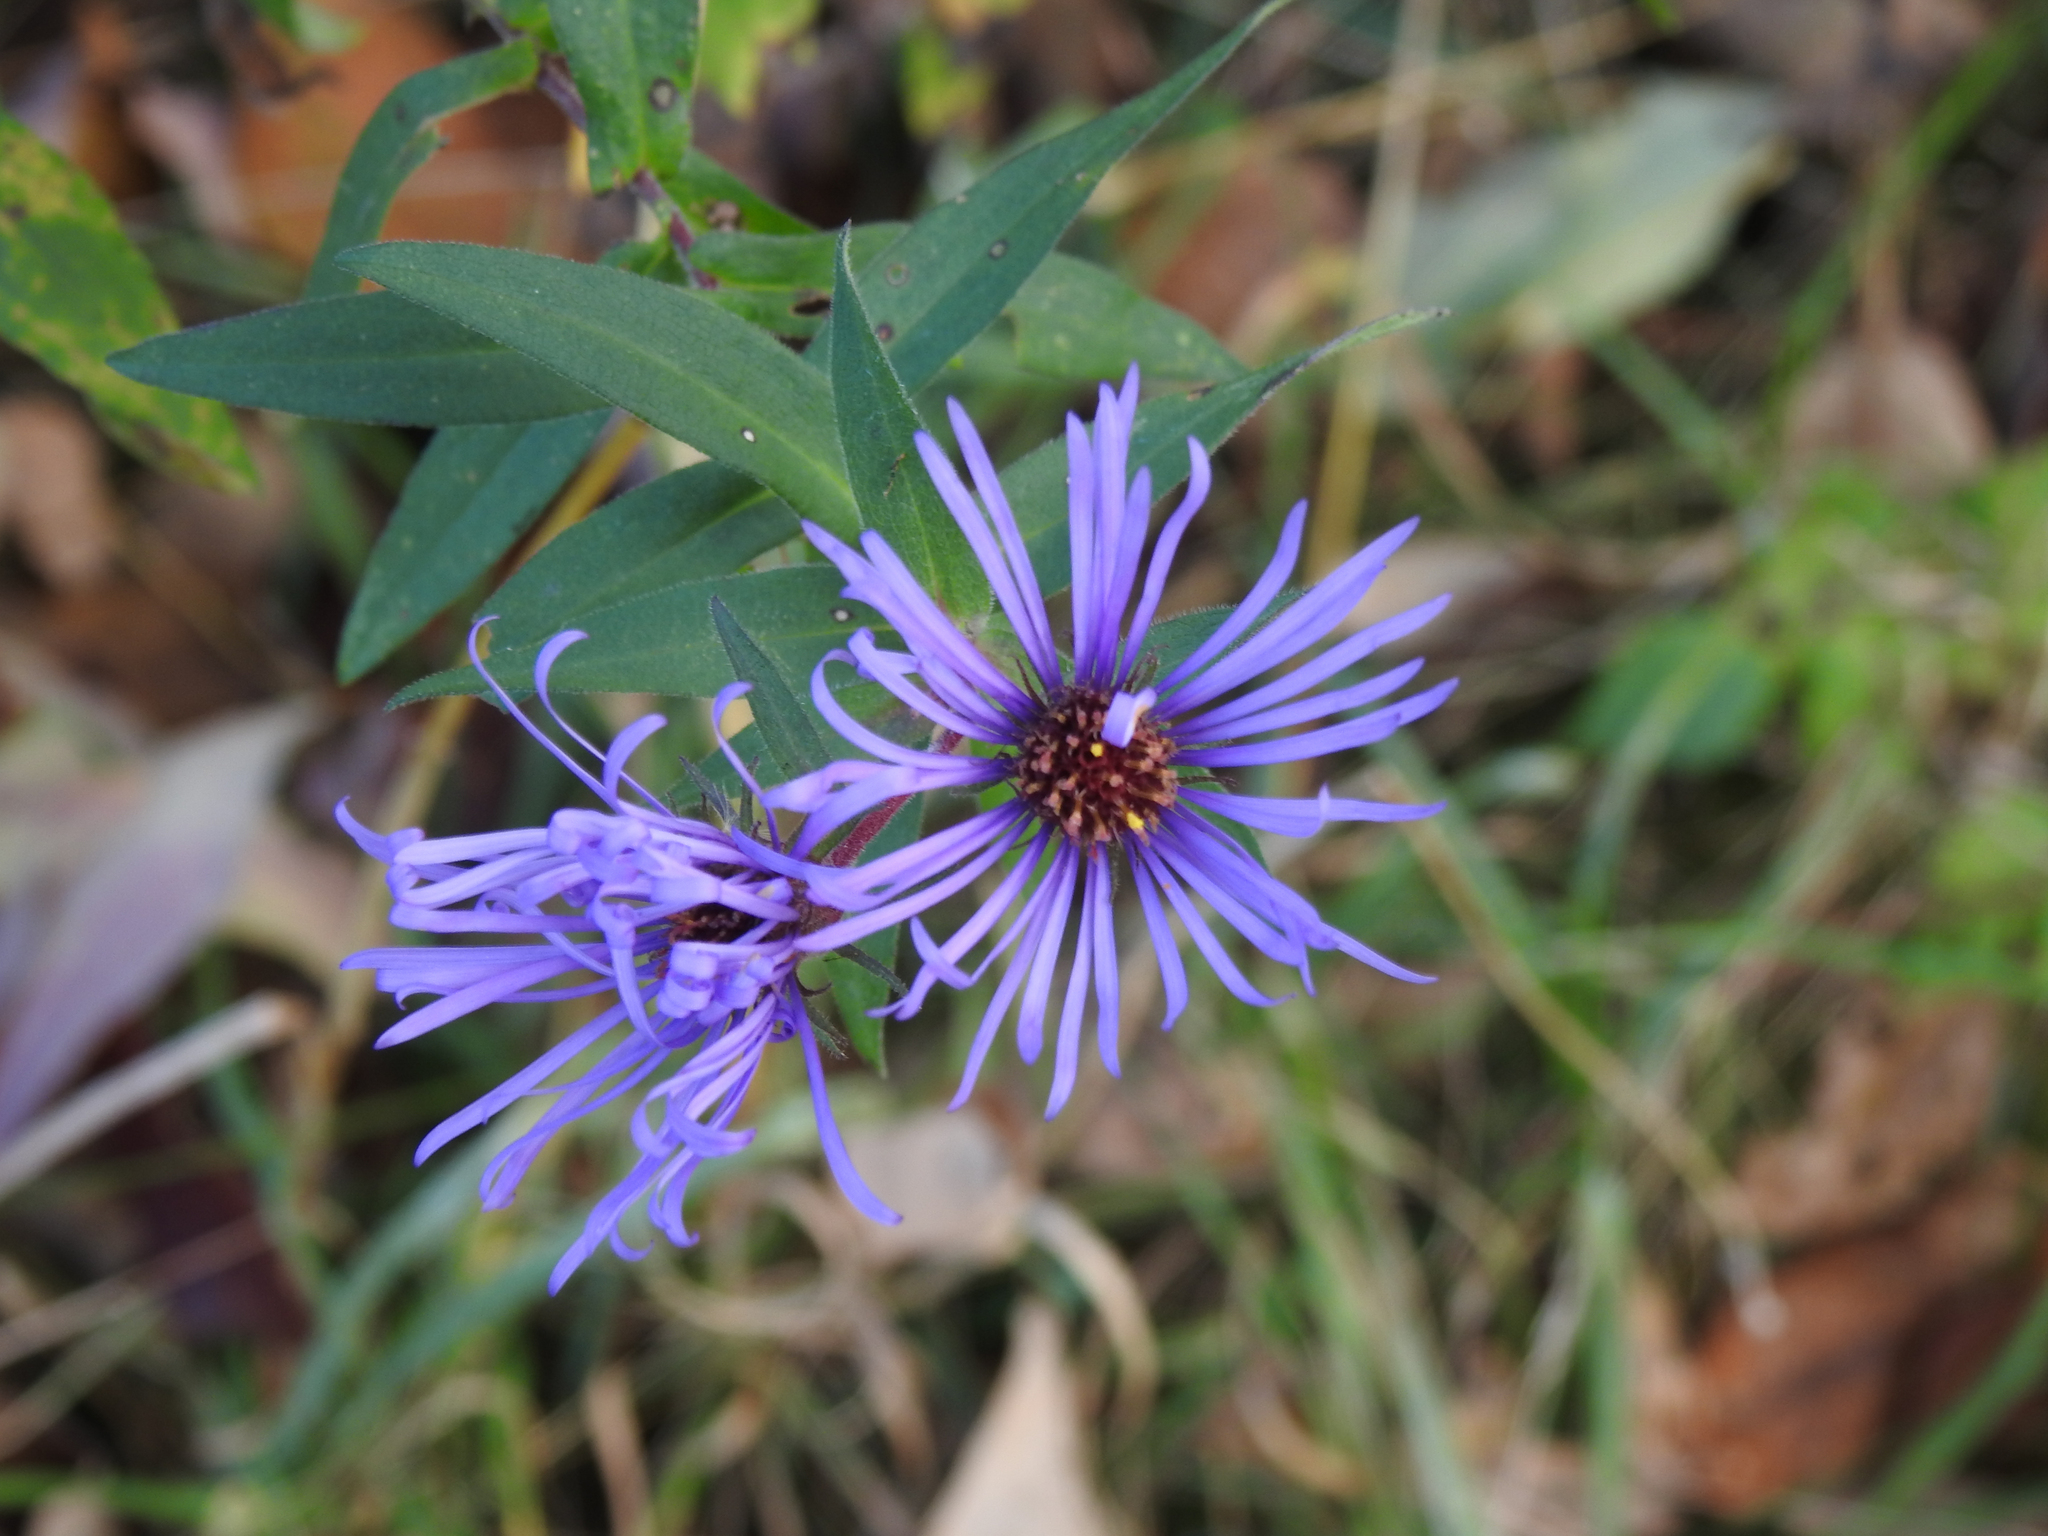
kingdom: Plantae
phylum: Tracheophyta
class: Magnoliopsida
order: Asterales
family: Asteraceae
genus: Symphyotrichum
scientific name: Symphyotrichum novae-angliae
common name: Michaelmas daisy
